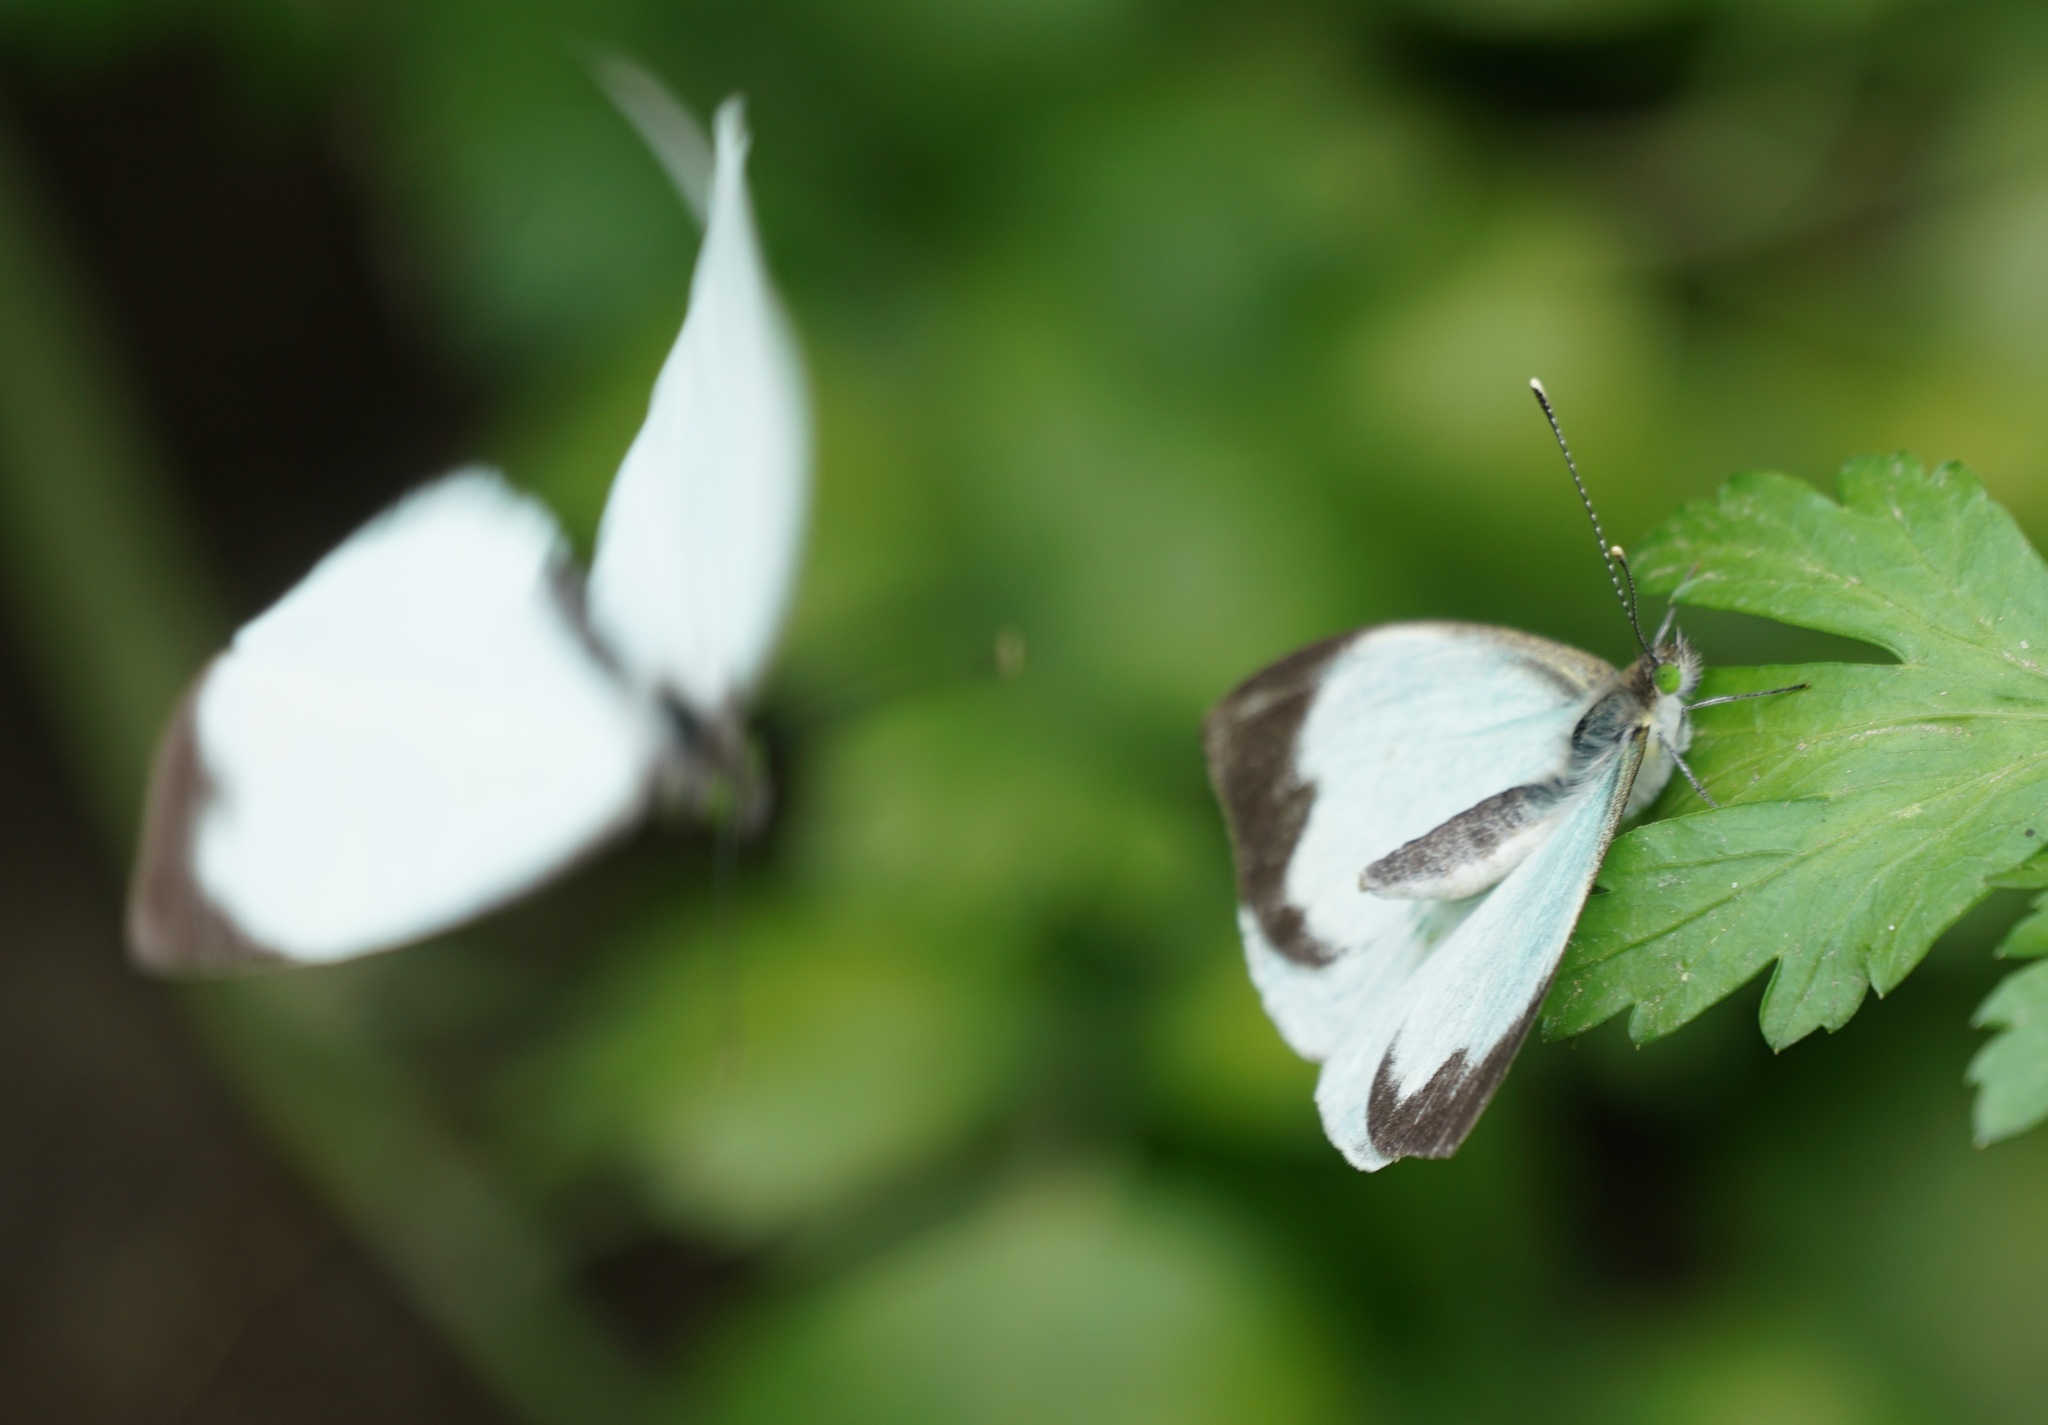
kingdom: Animalia
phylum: Arthropoda
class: Insecta
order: Lepidoptera
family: Pieridae
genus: Leptophobia
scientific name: Leptophobia aripa
